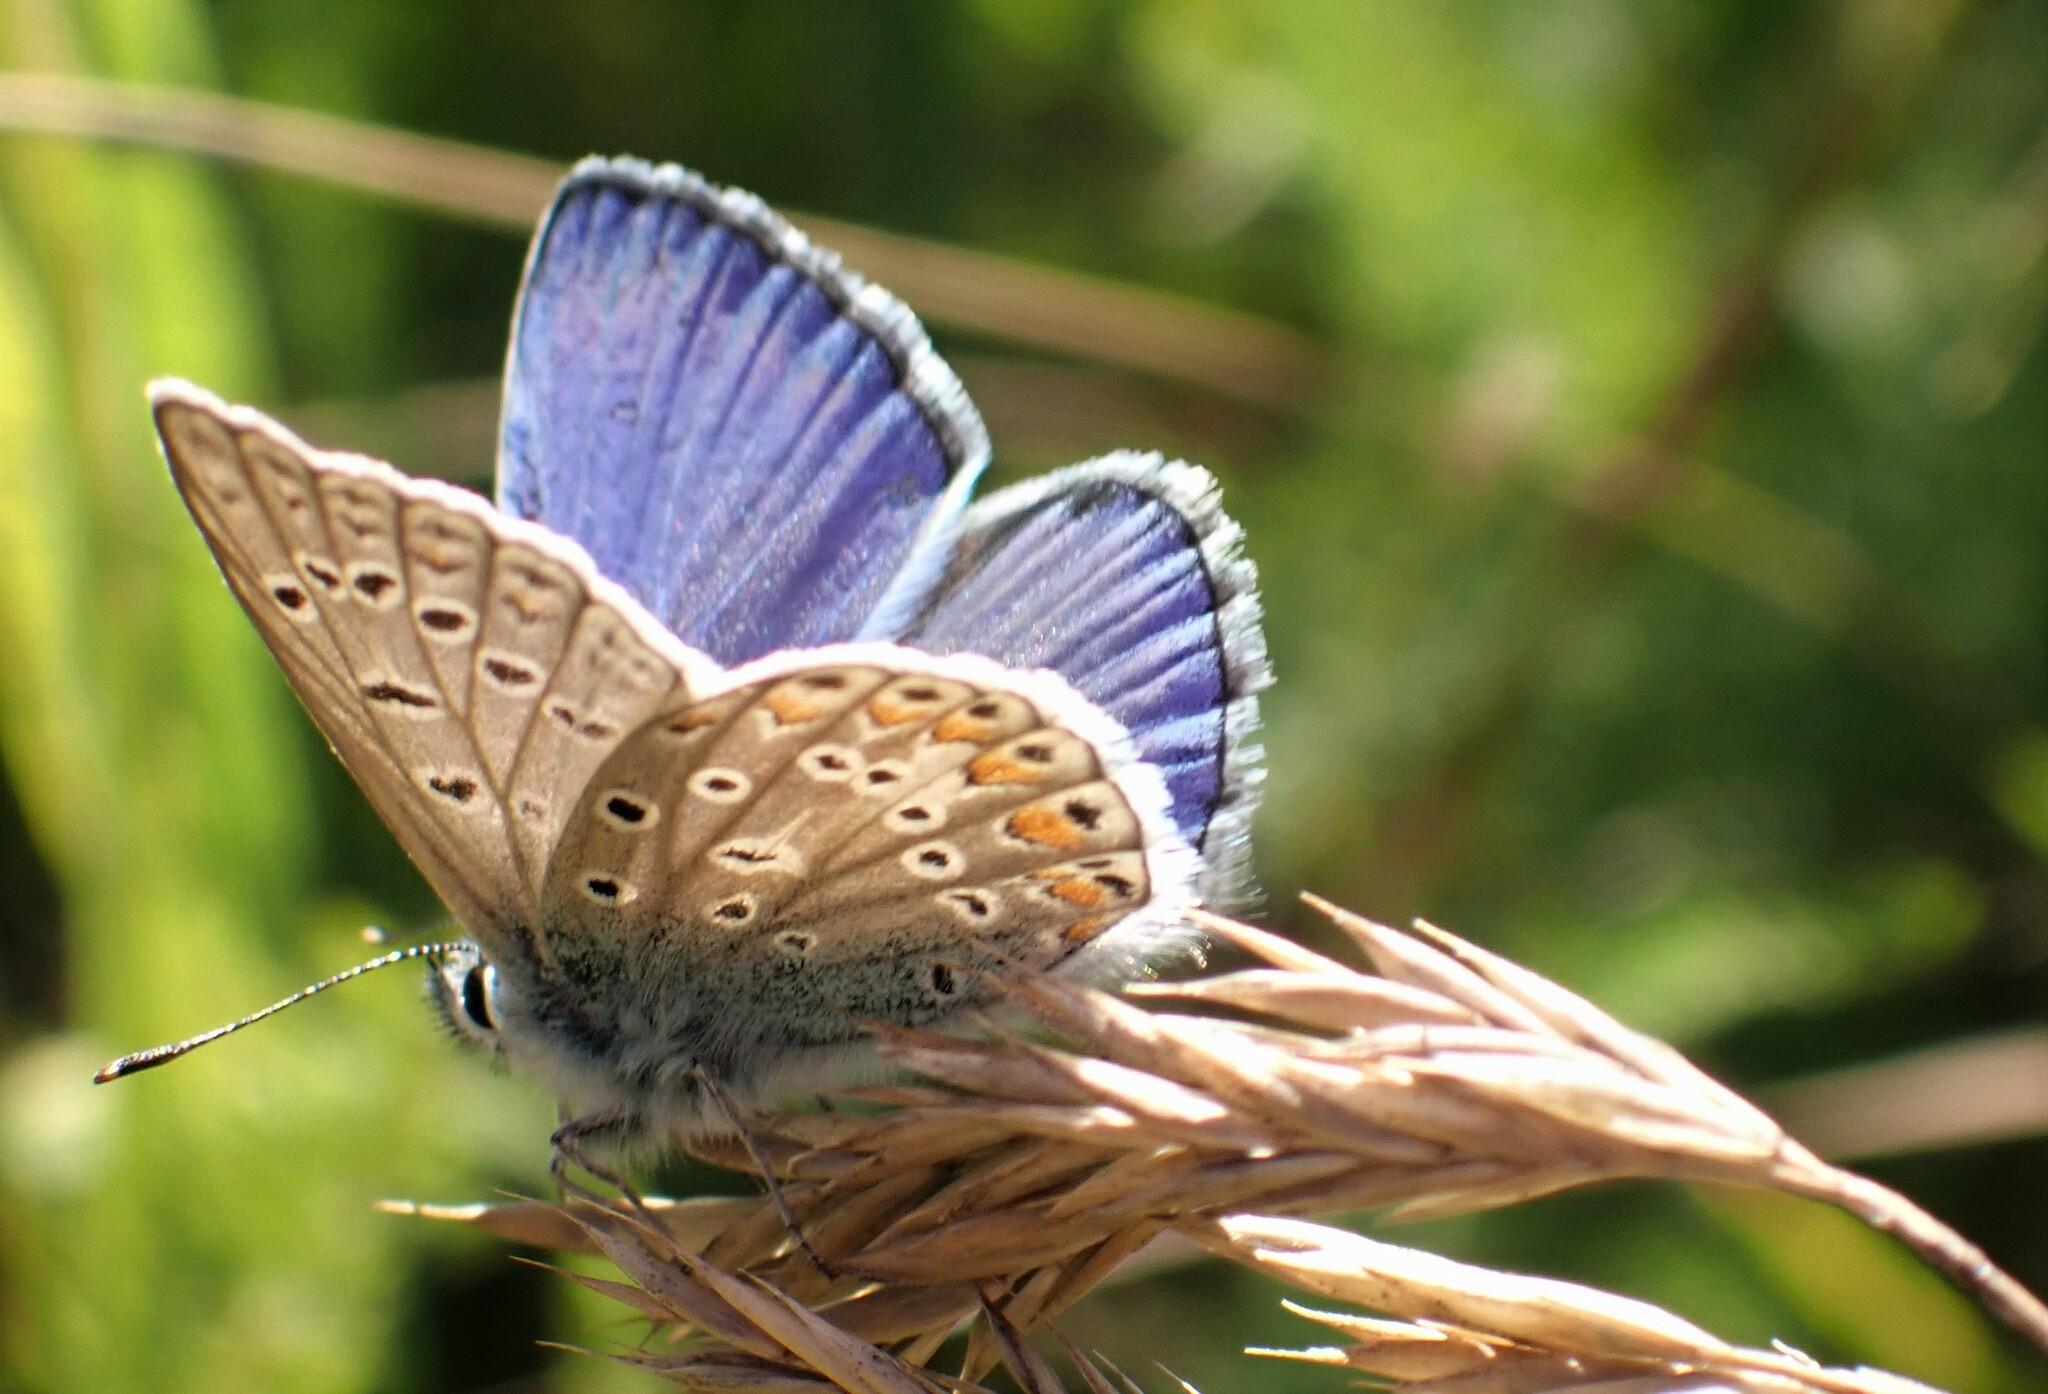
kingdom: Animalia
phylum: Arthropoda
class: Insecta
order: Lepidoptera
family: Lycaenidae
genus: Polyommatus
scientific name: Polyommatus icarus
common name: Common blue
